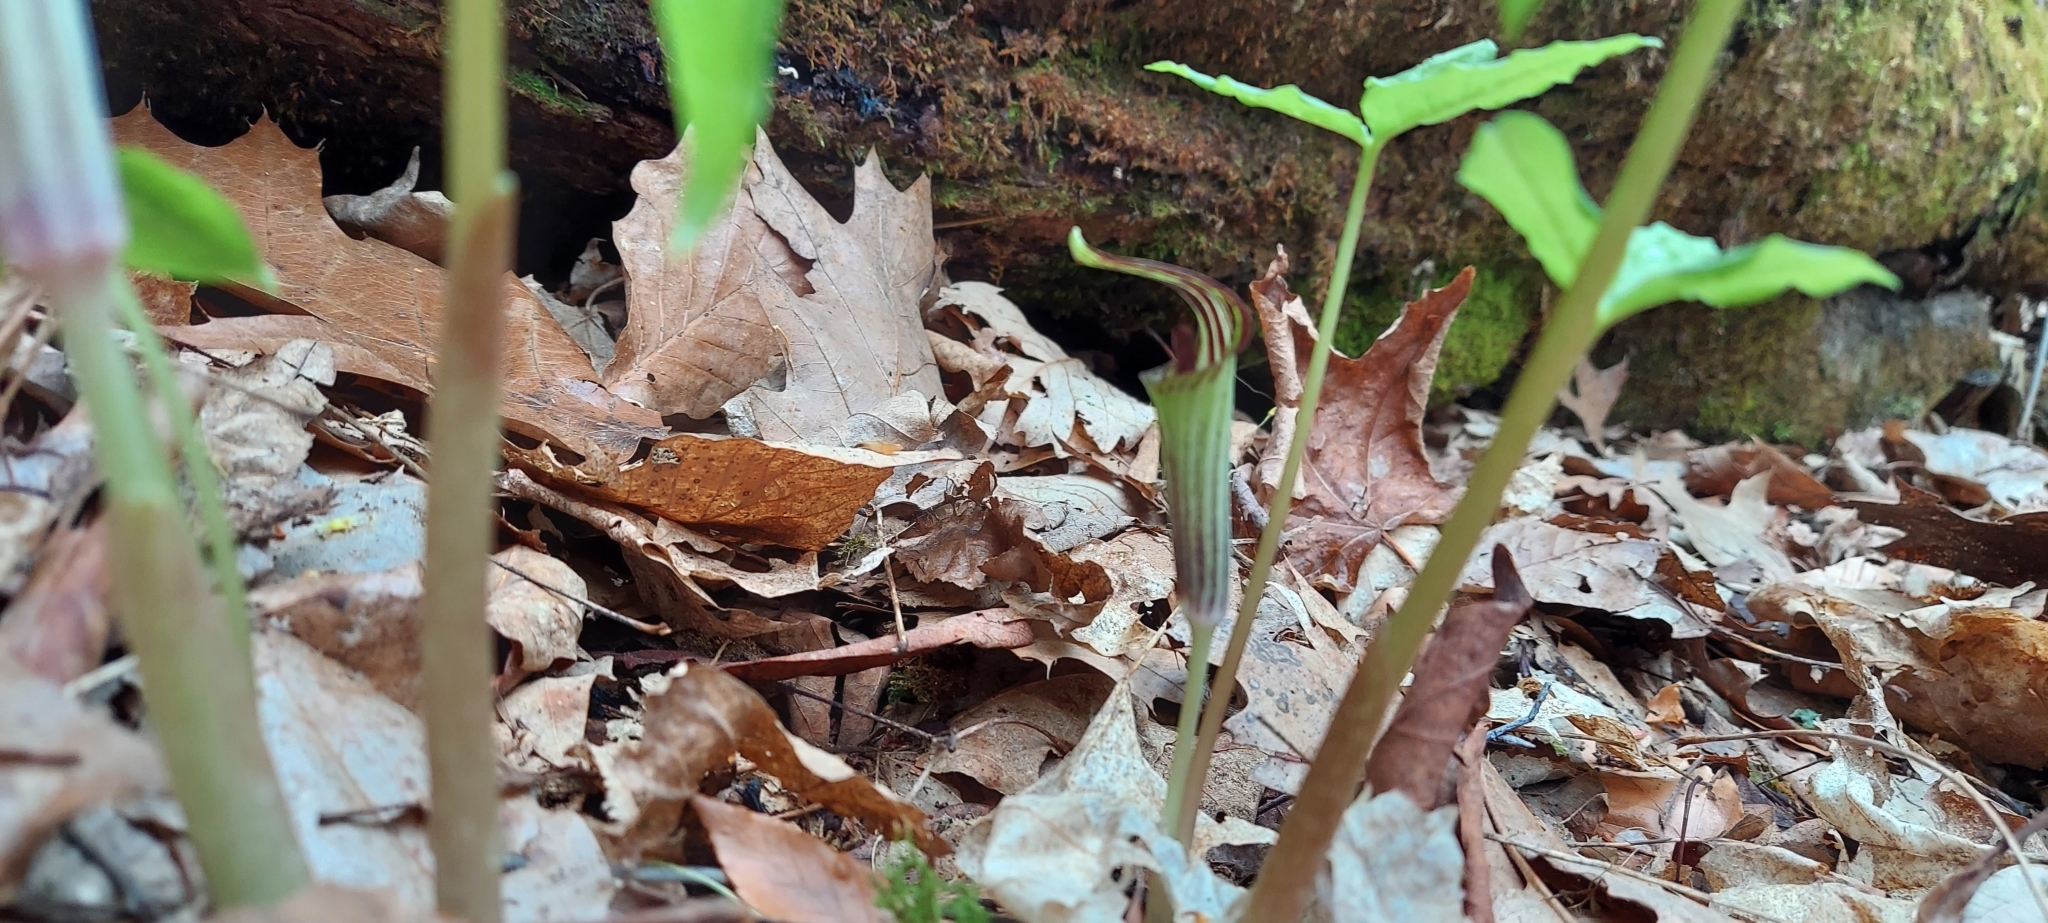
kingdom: Plantae
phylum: Tracheophyta
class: Liliopsida
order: Alismatales
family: Araceae
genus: Arisaema
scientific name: Arisaema triphyllum
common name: Jack-in-the-pulpit
